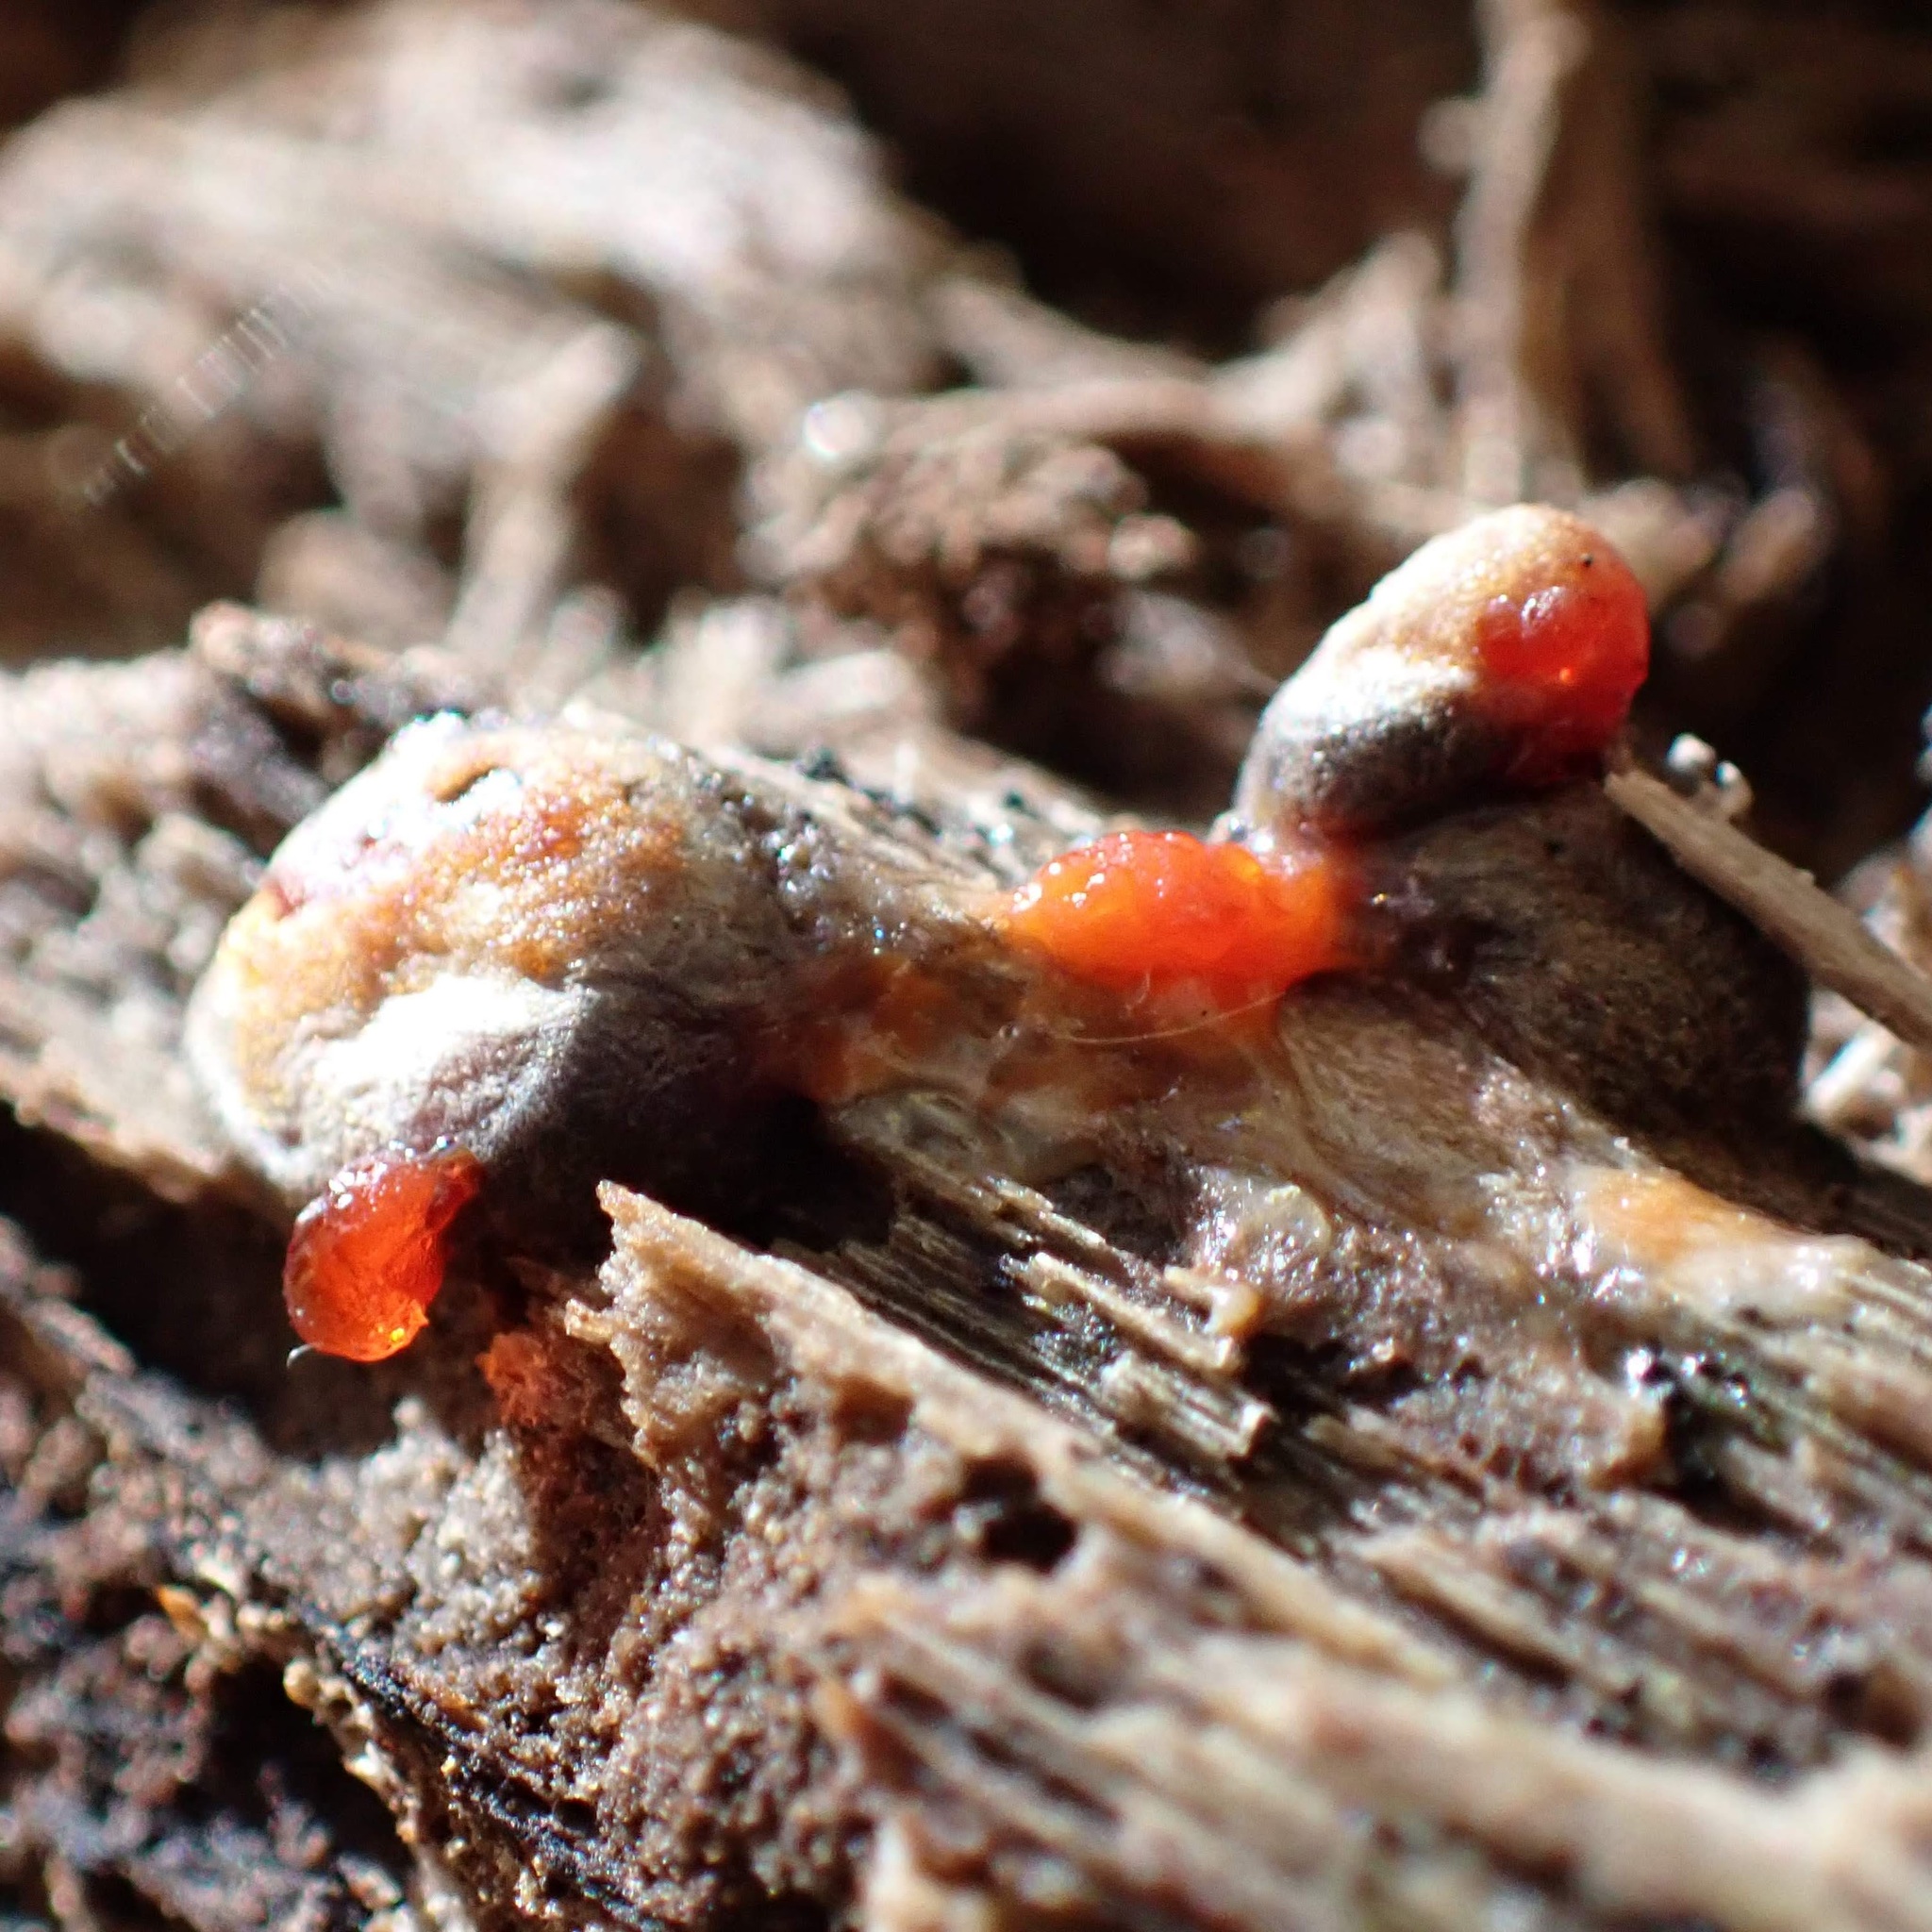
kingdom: Protozoa
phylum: Mycetozoa
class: Myxomycetes
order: Cribrariales
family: Tubiferaceae
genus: Lycogala
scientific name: Lycogala
